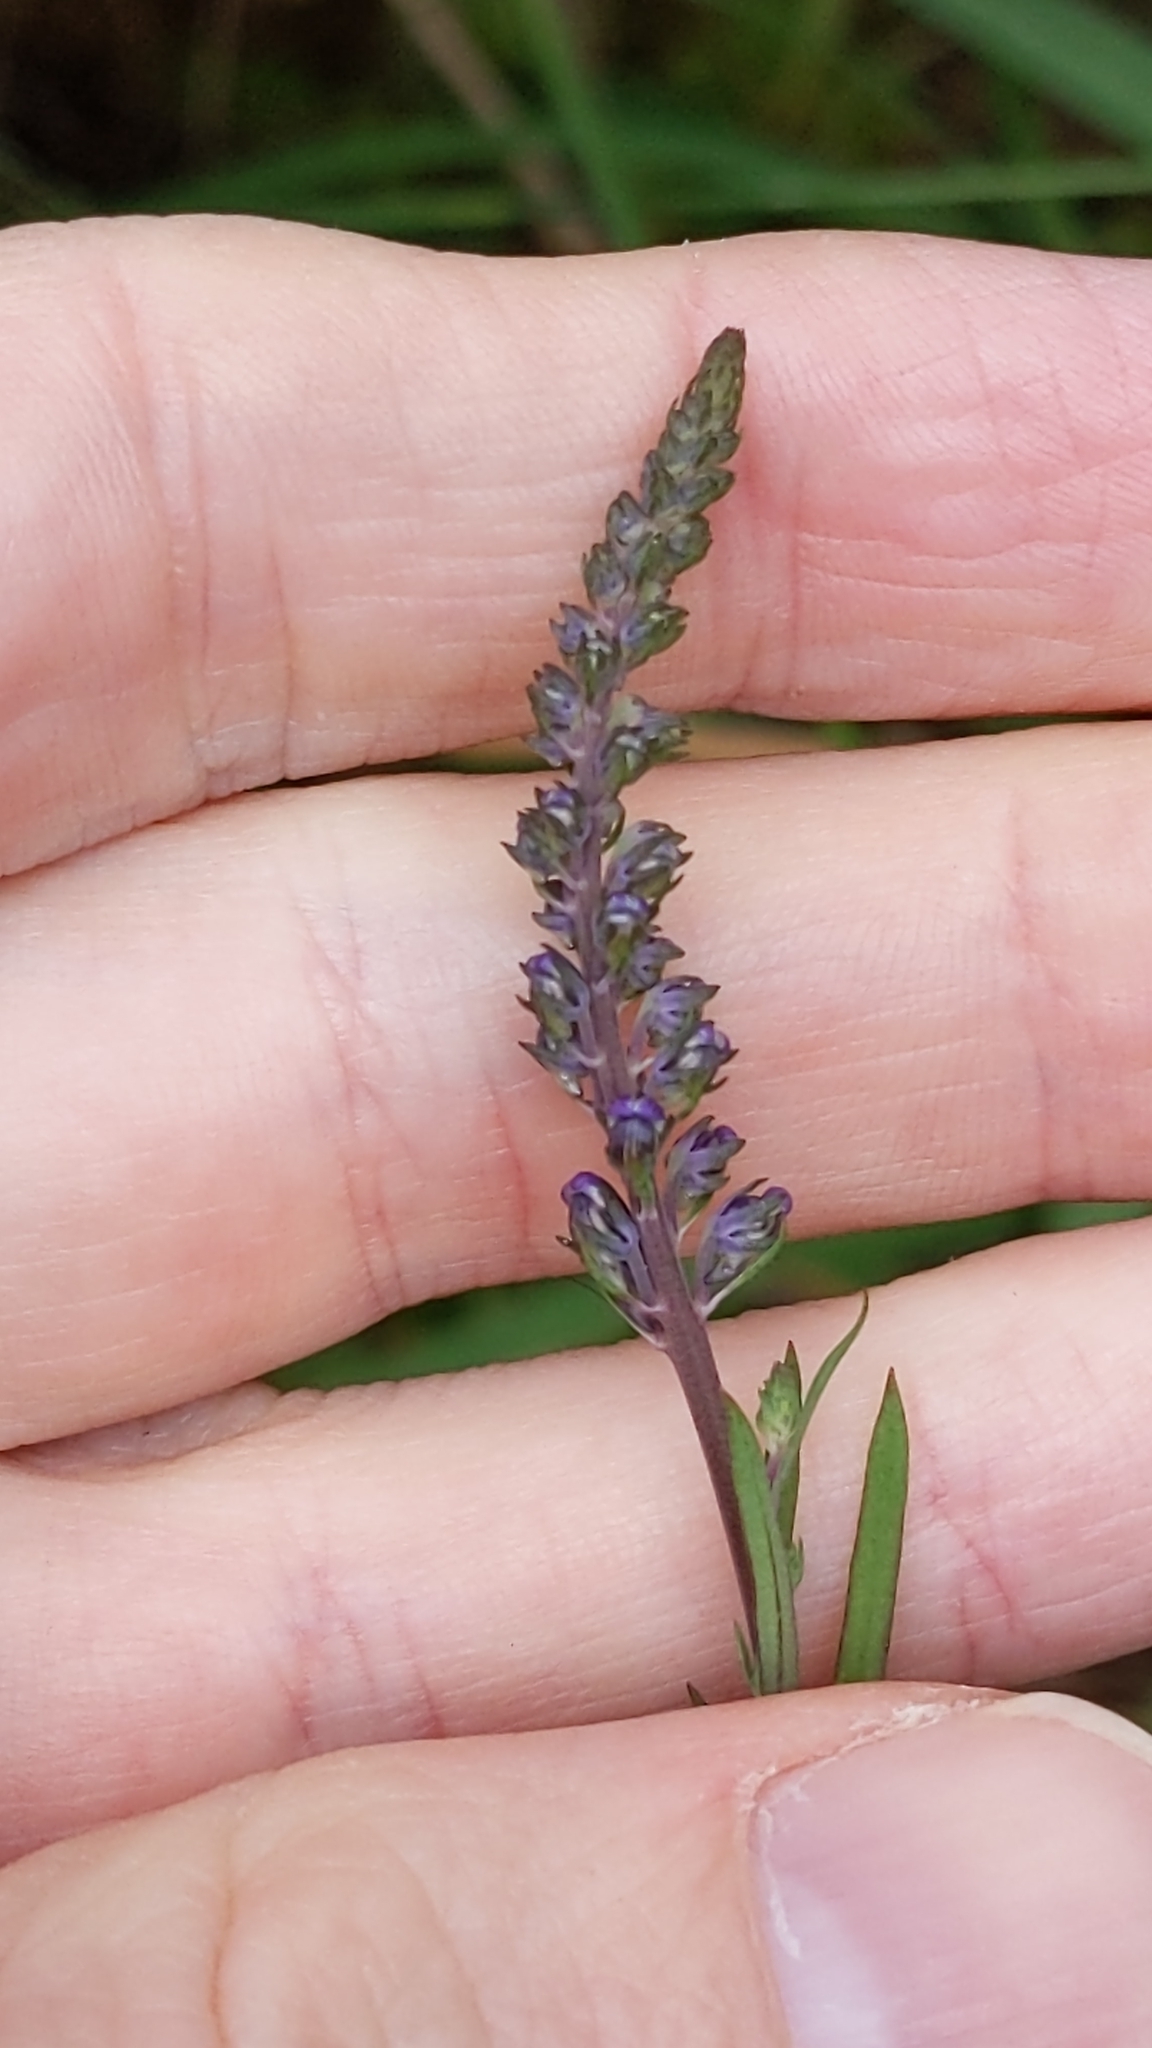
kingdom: Plantae
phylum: Tracheophyta
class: Magnoliopsida
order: Lamiales
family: Plantaginaceae
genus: Linaria
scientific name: Linaria purpurea
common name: Purple toadflax
